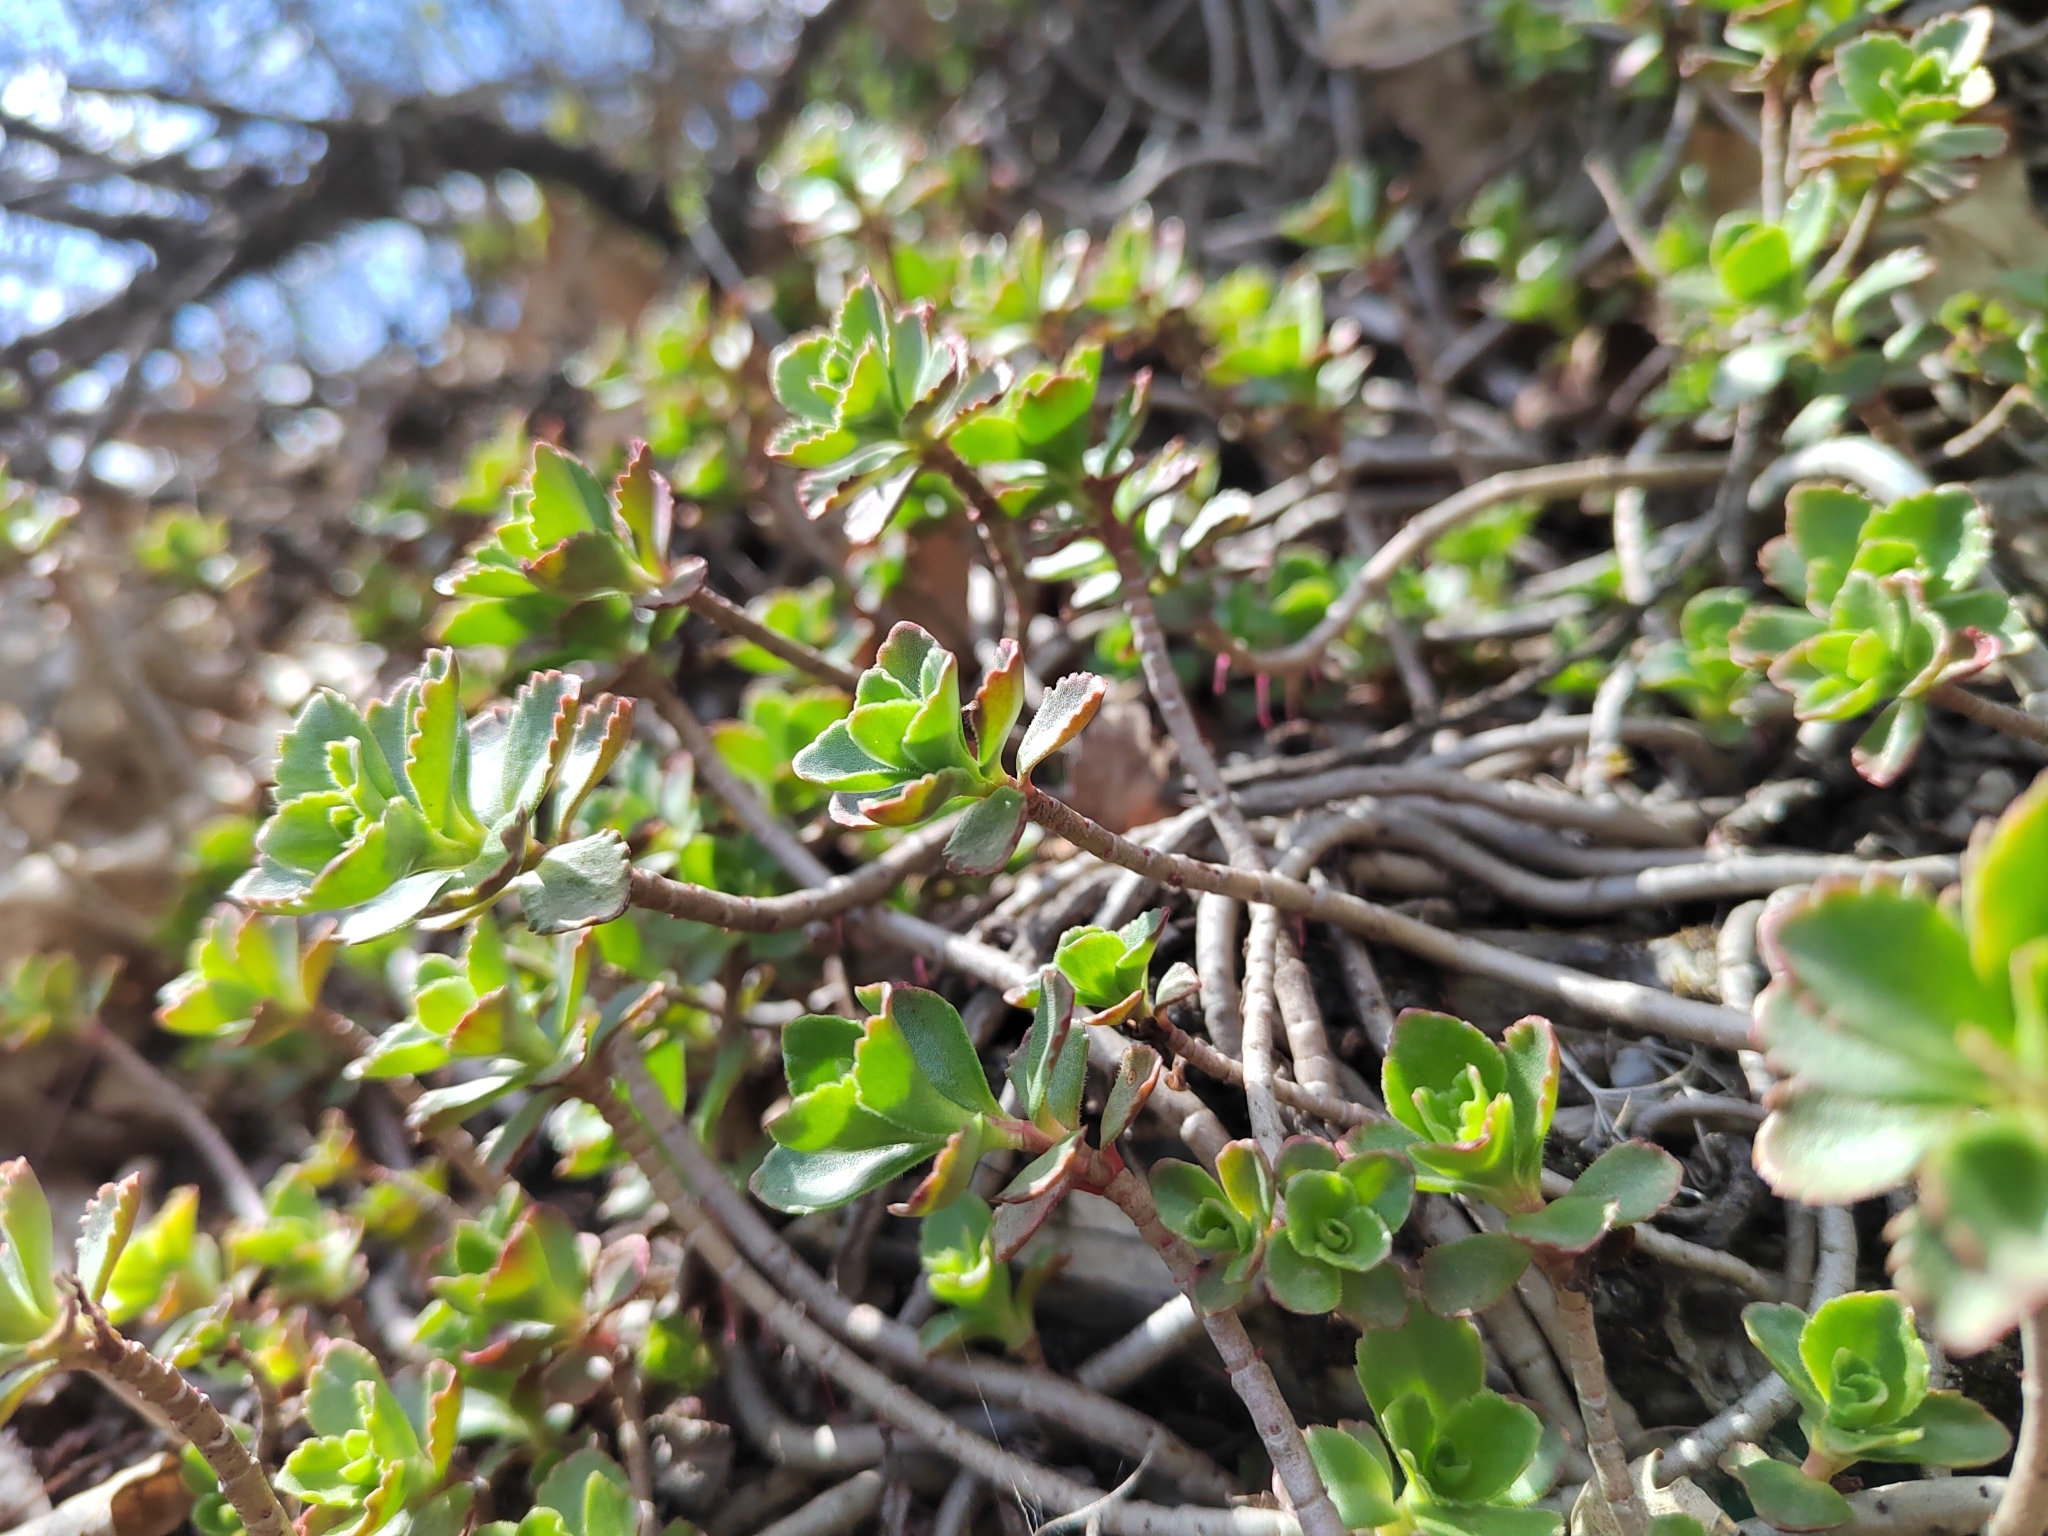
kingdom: Plantae
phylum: Tracheophyta
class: Magnoliopsida
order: Saxifragales
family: Crassulaceae
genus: Phedimus
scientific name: Phedimus spurius
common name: Caucasian stonecrop
